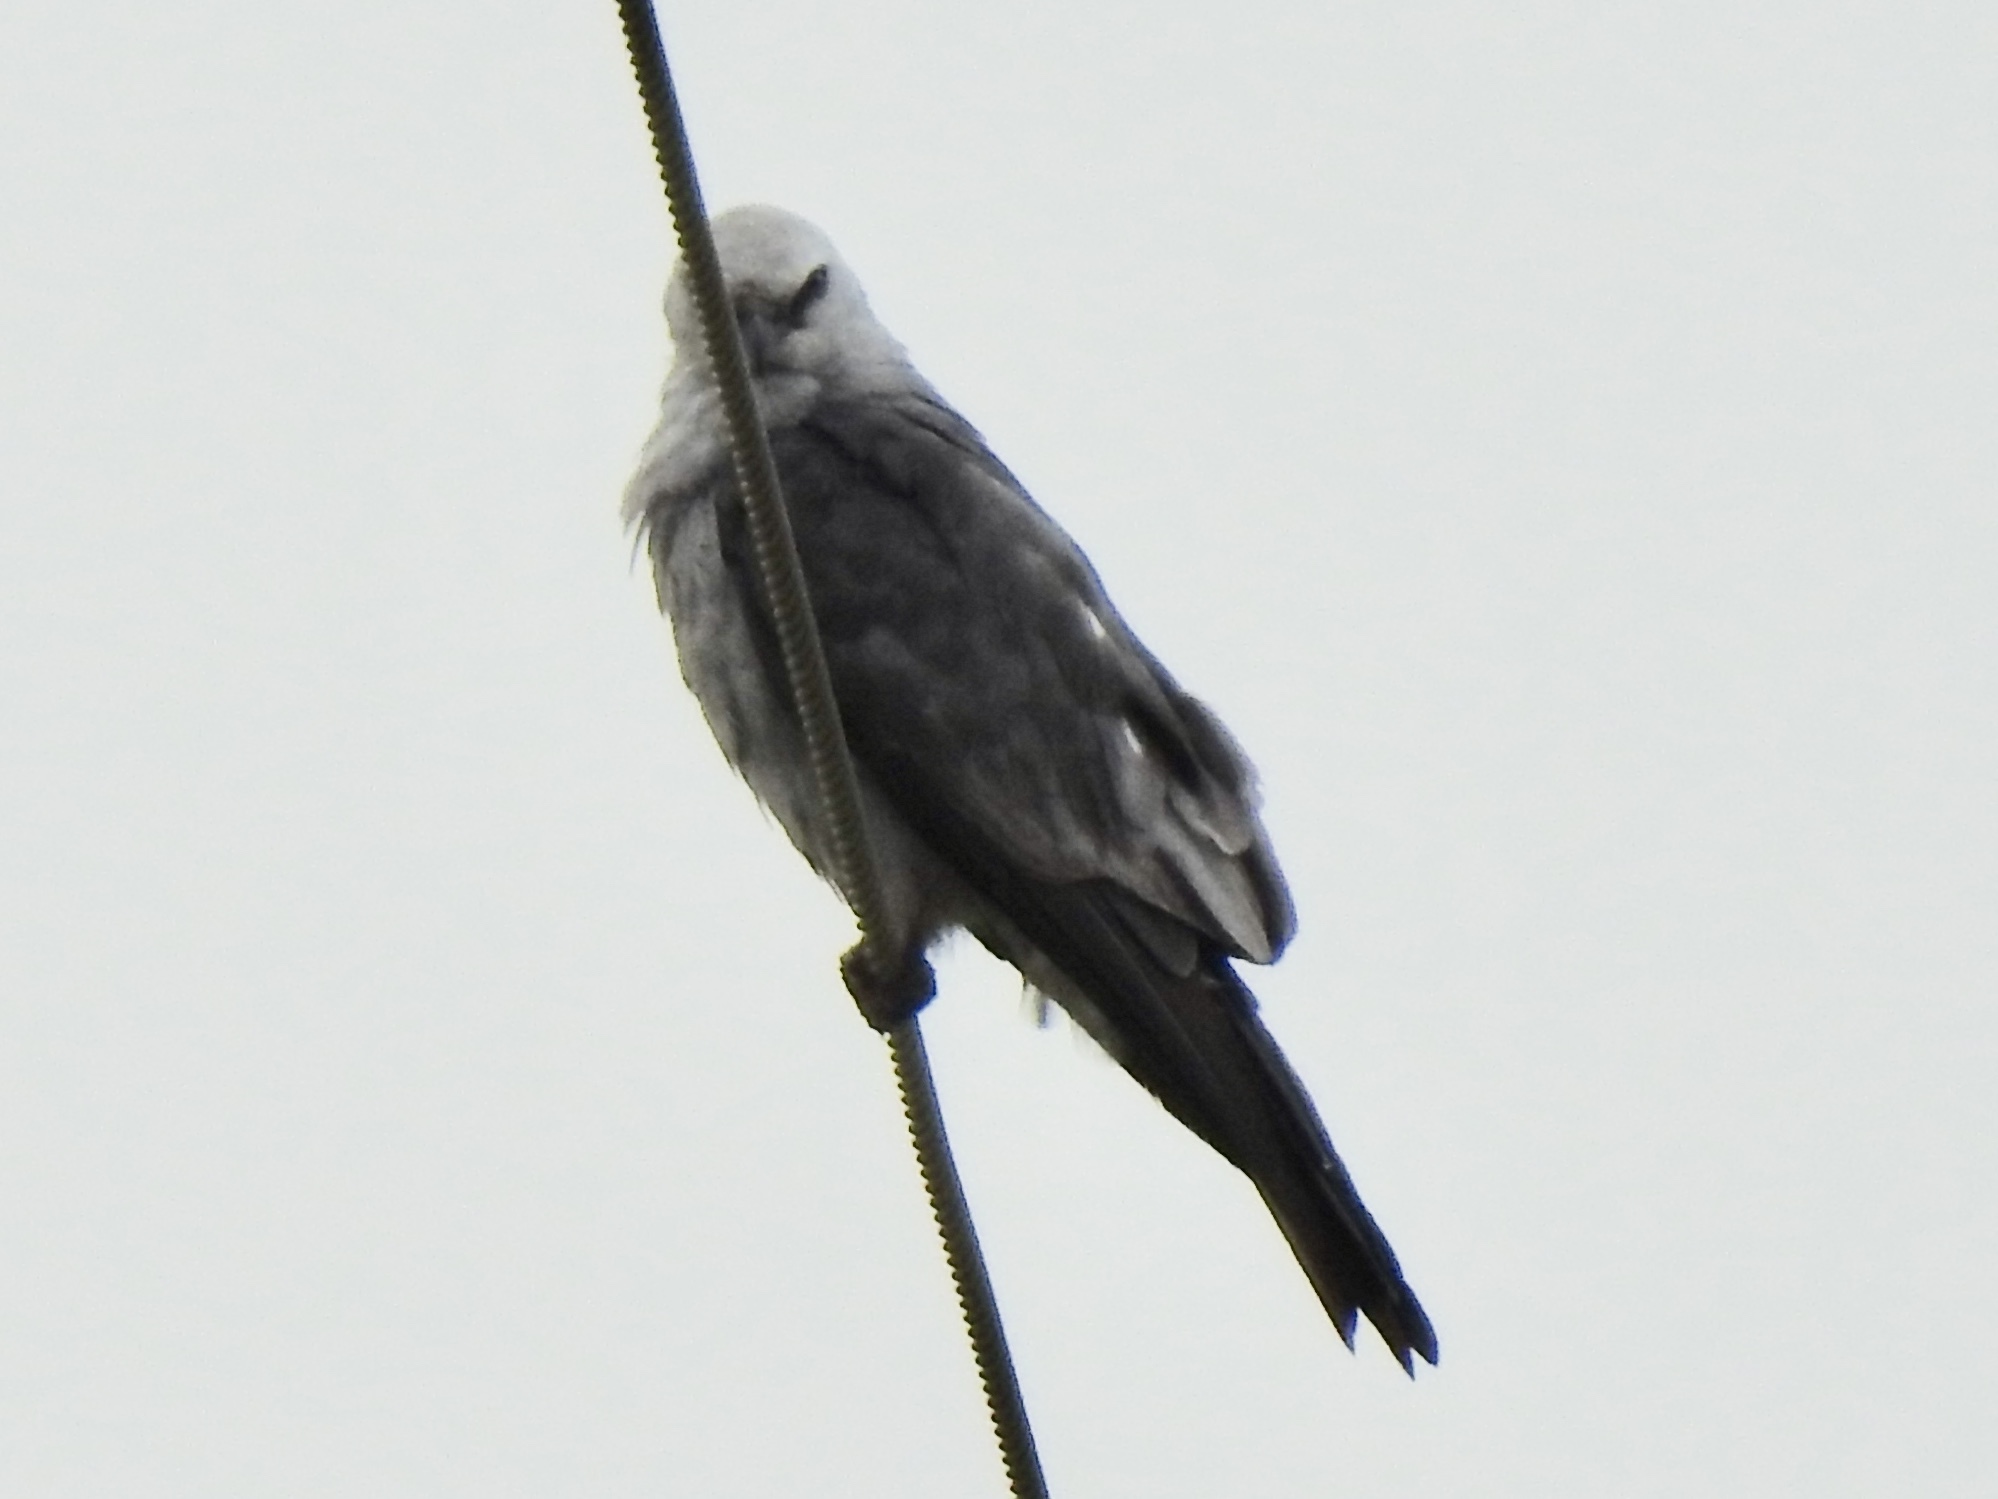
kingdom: Animalia
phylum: Chordata
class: Aves
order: Accipitriformes
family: Accipitridae
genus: Ictinia
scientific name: Ictinia mississippiensis
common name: Mississippi kite
